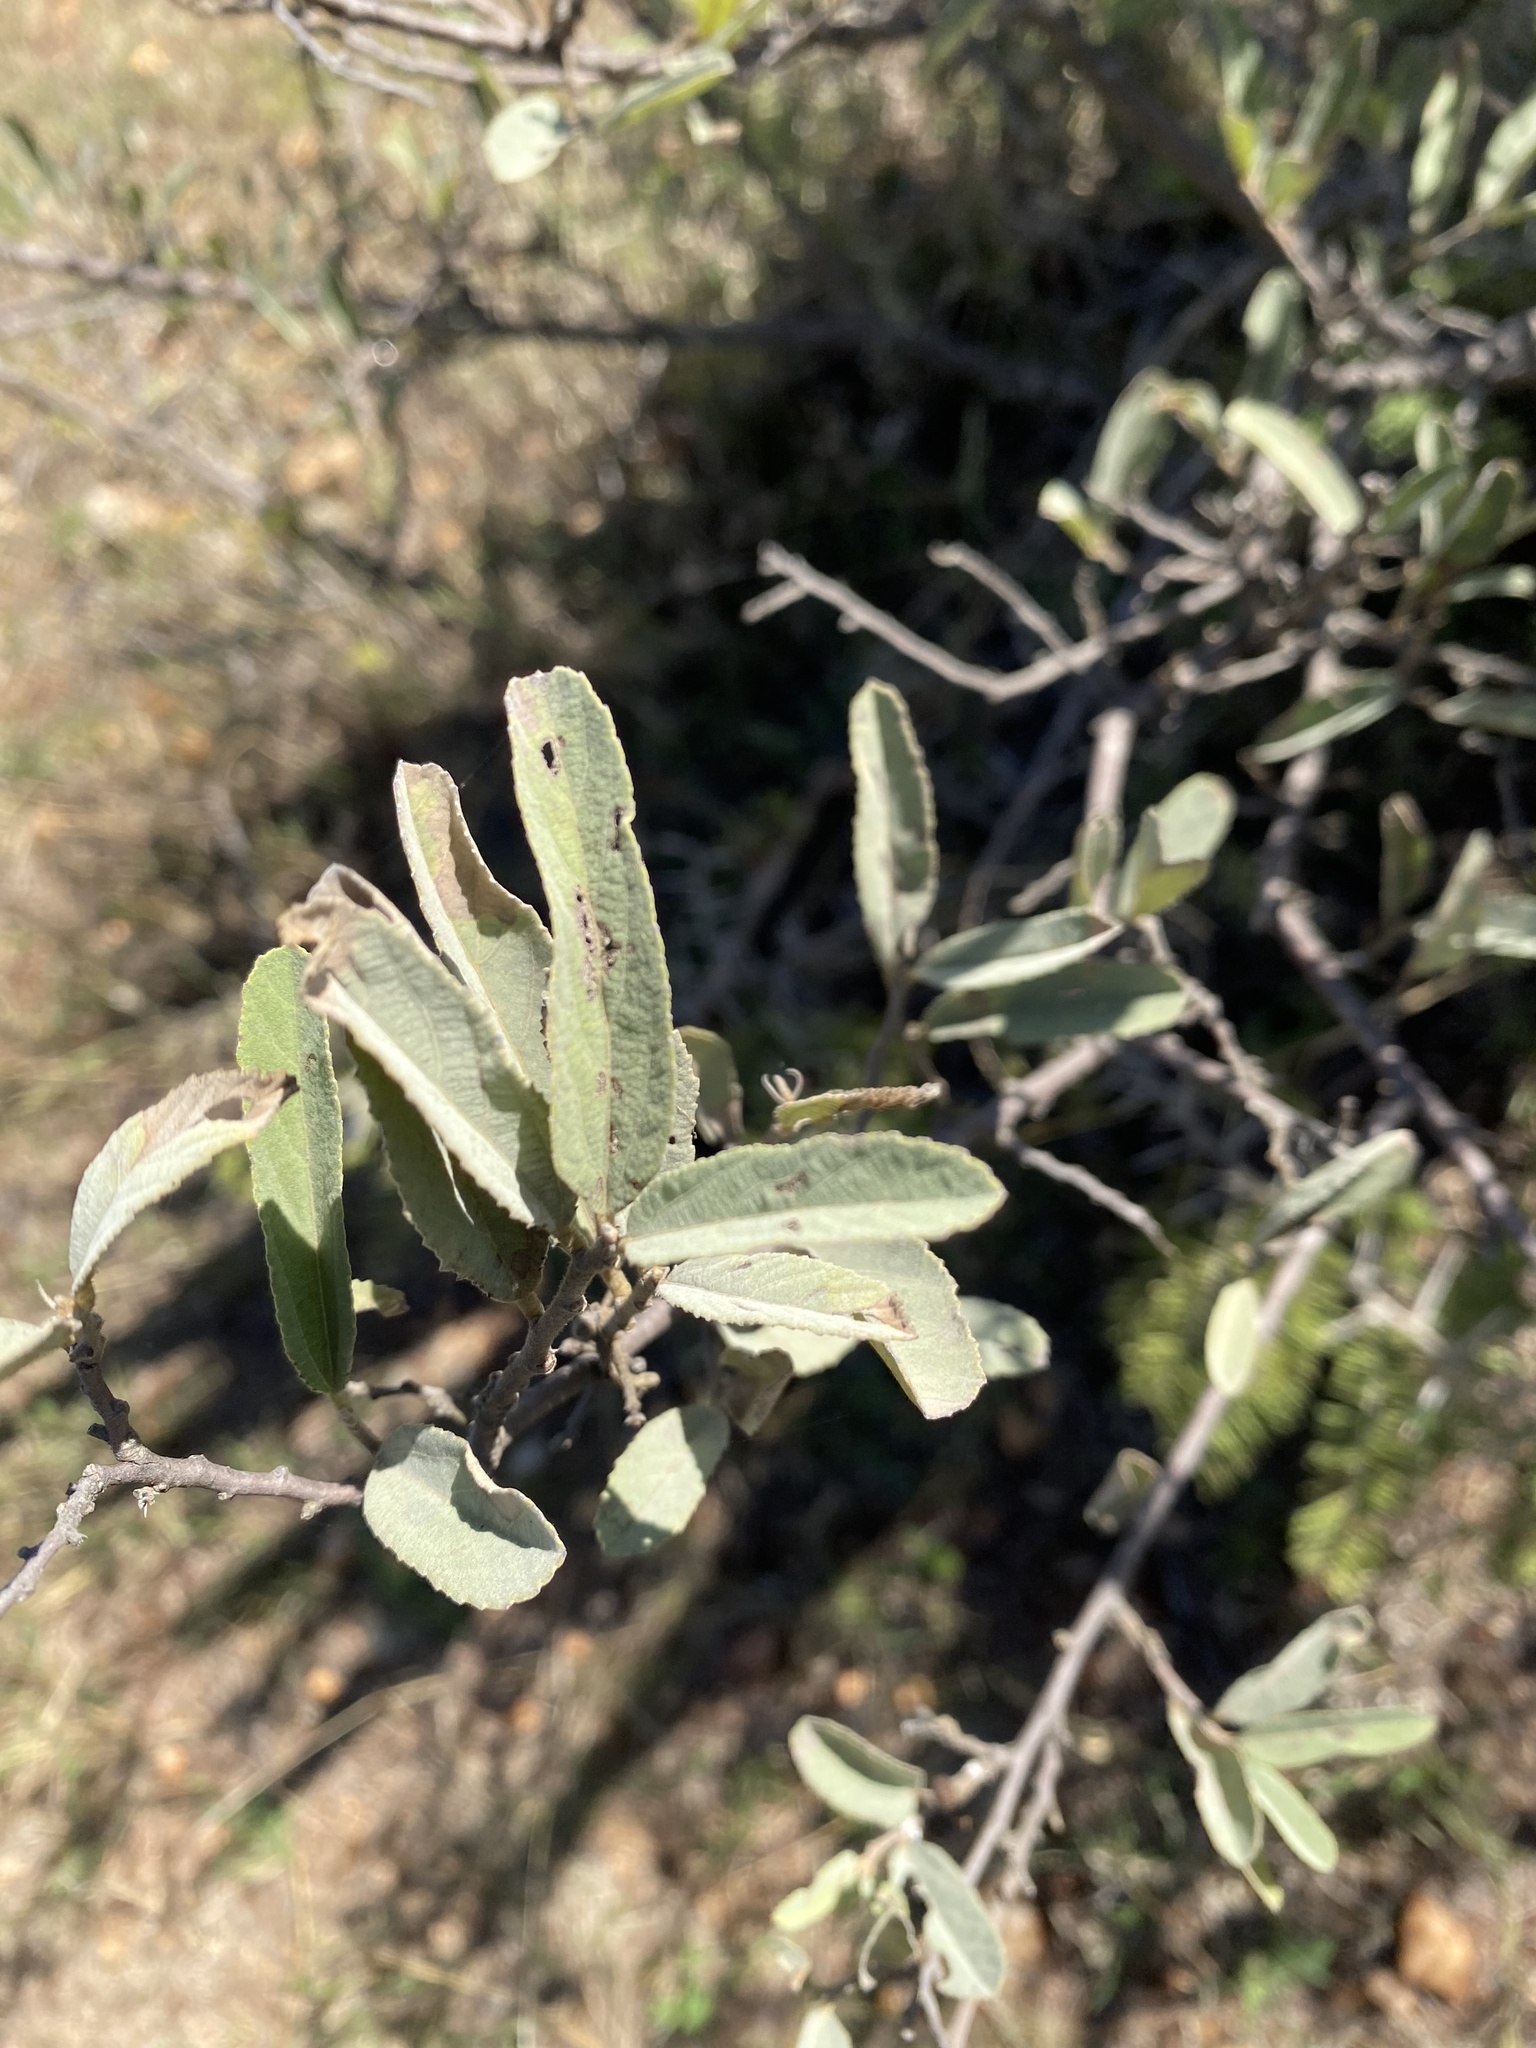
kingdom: Plantae
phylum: Tracheophyta
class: Magnoliopsida
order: Malvales
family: Malvaceae
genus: Grewia
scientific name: Grewia flava
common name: Brandy bush
